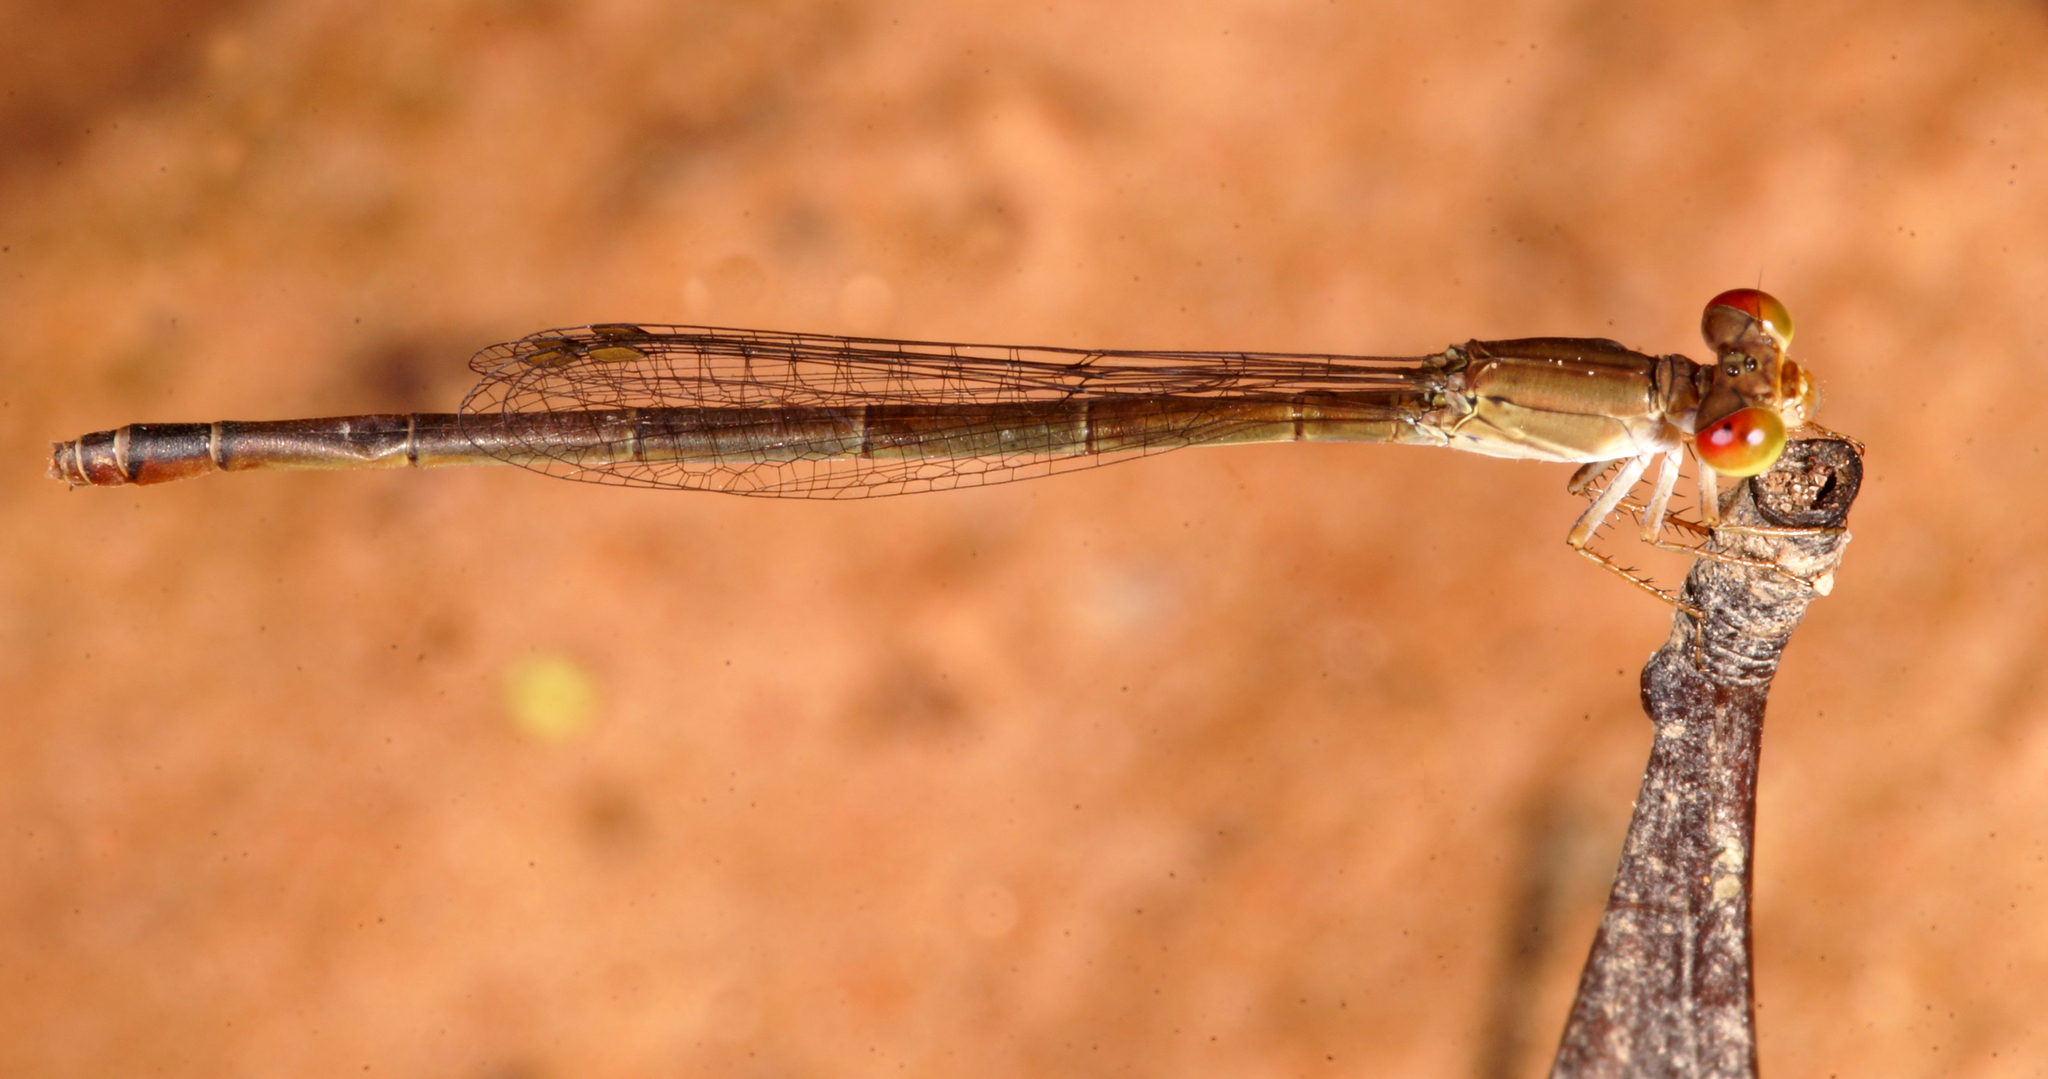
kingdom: Animalia
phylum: Arthropoda
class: Insecta
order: Odonata
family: Coenagrionidae
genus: Ceriagrion
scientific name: Ceriagrion praetermissum
